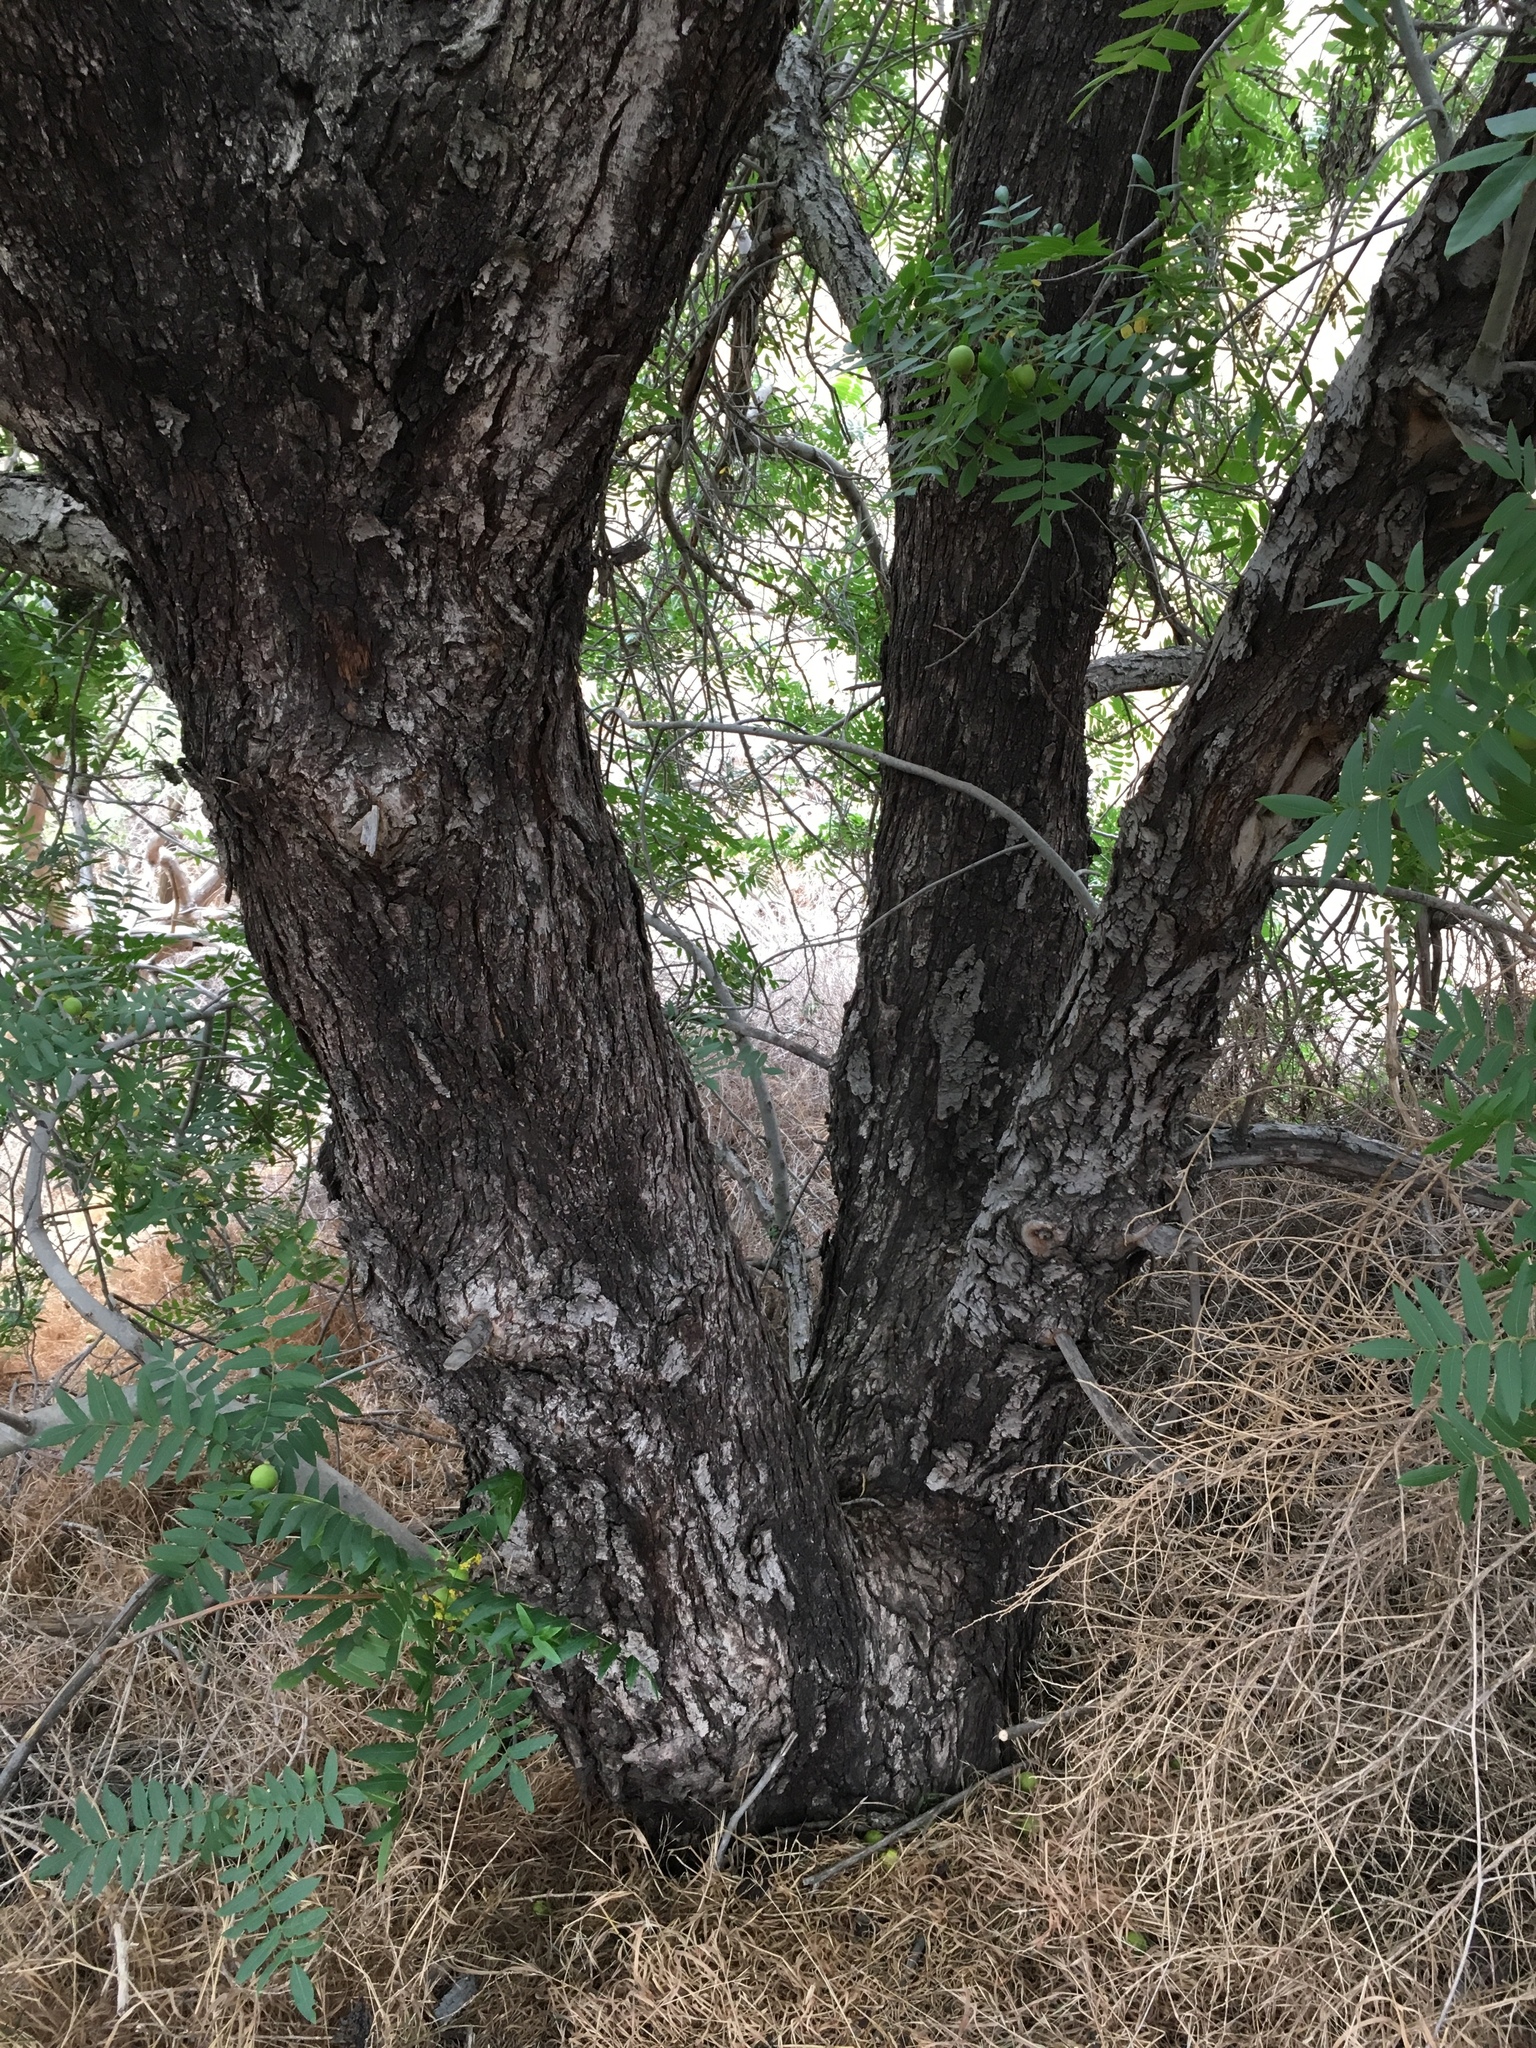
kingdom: Plantae
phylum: Tracheophyta
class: Magnoliopsida
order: Fagales
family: Juglandaceae
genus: Juglans
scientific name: Juglans californica
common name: Southern california black walnut
